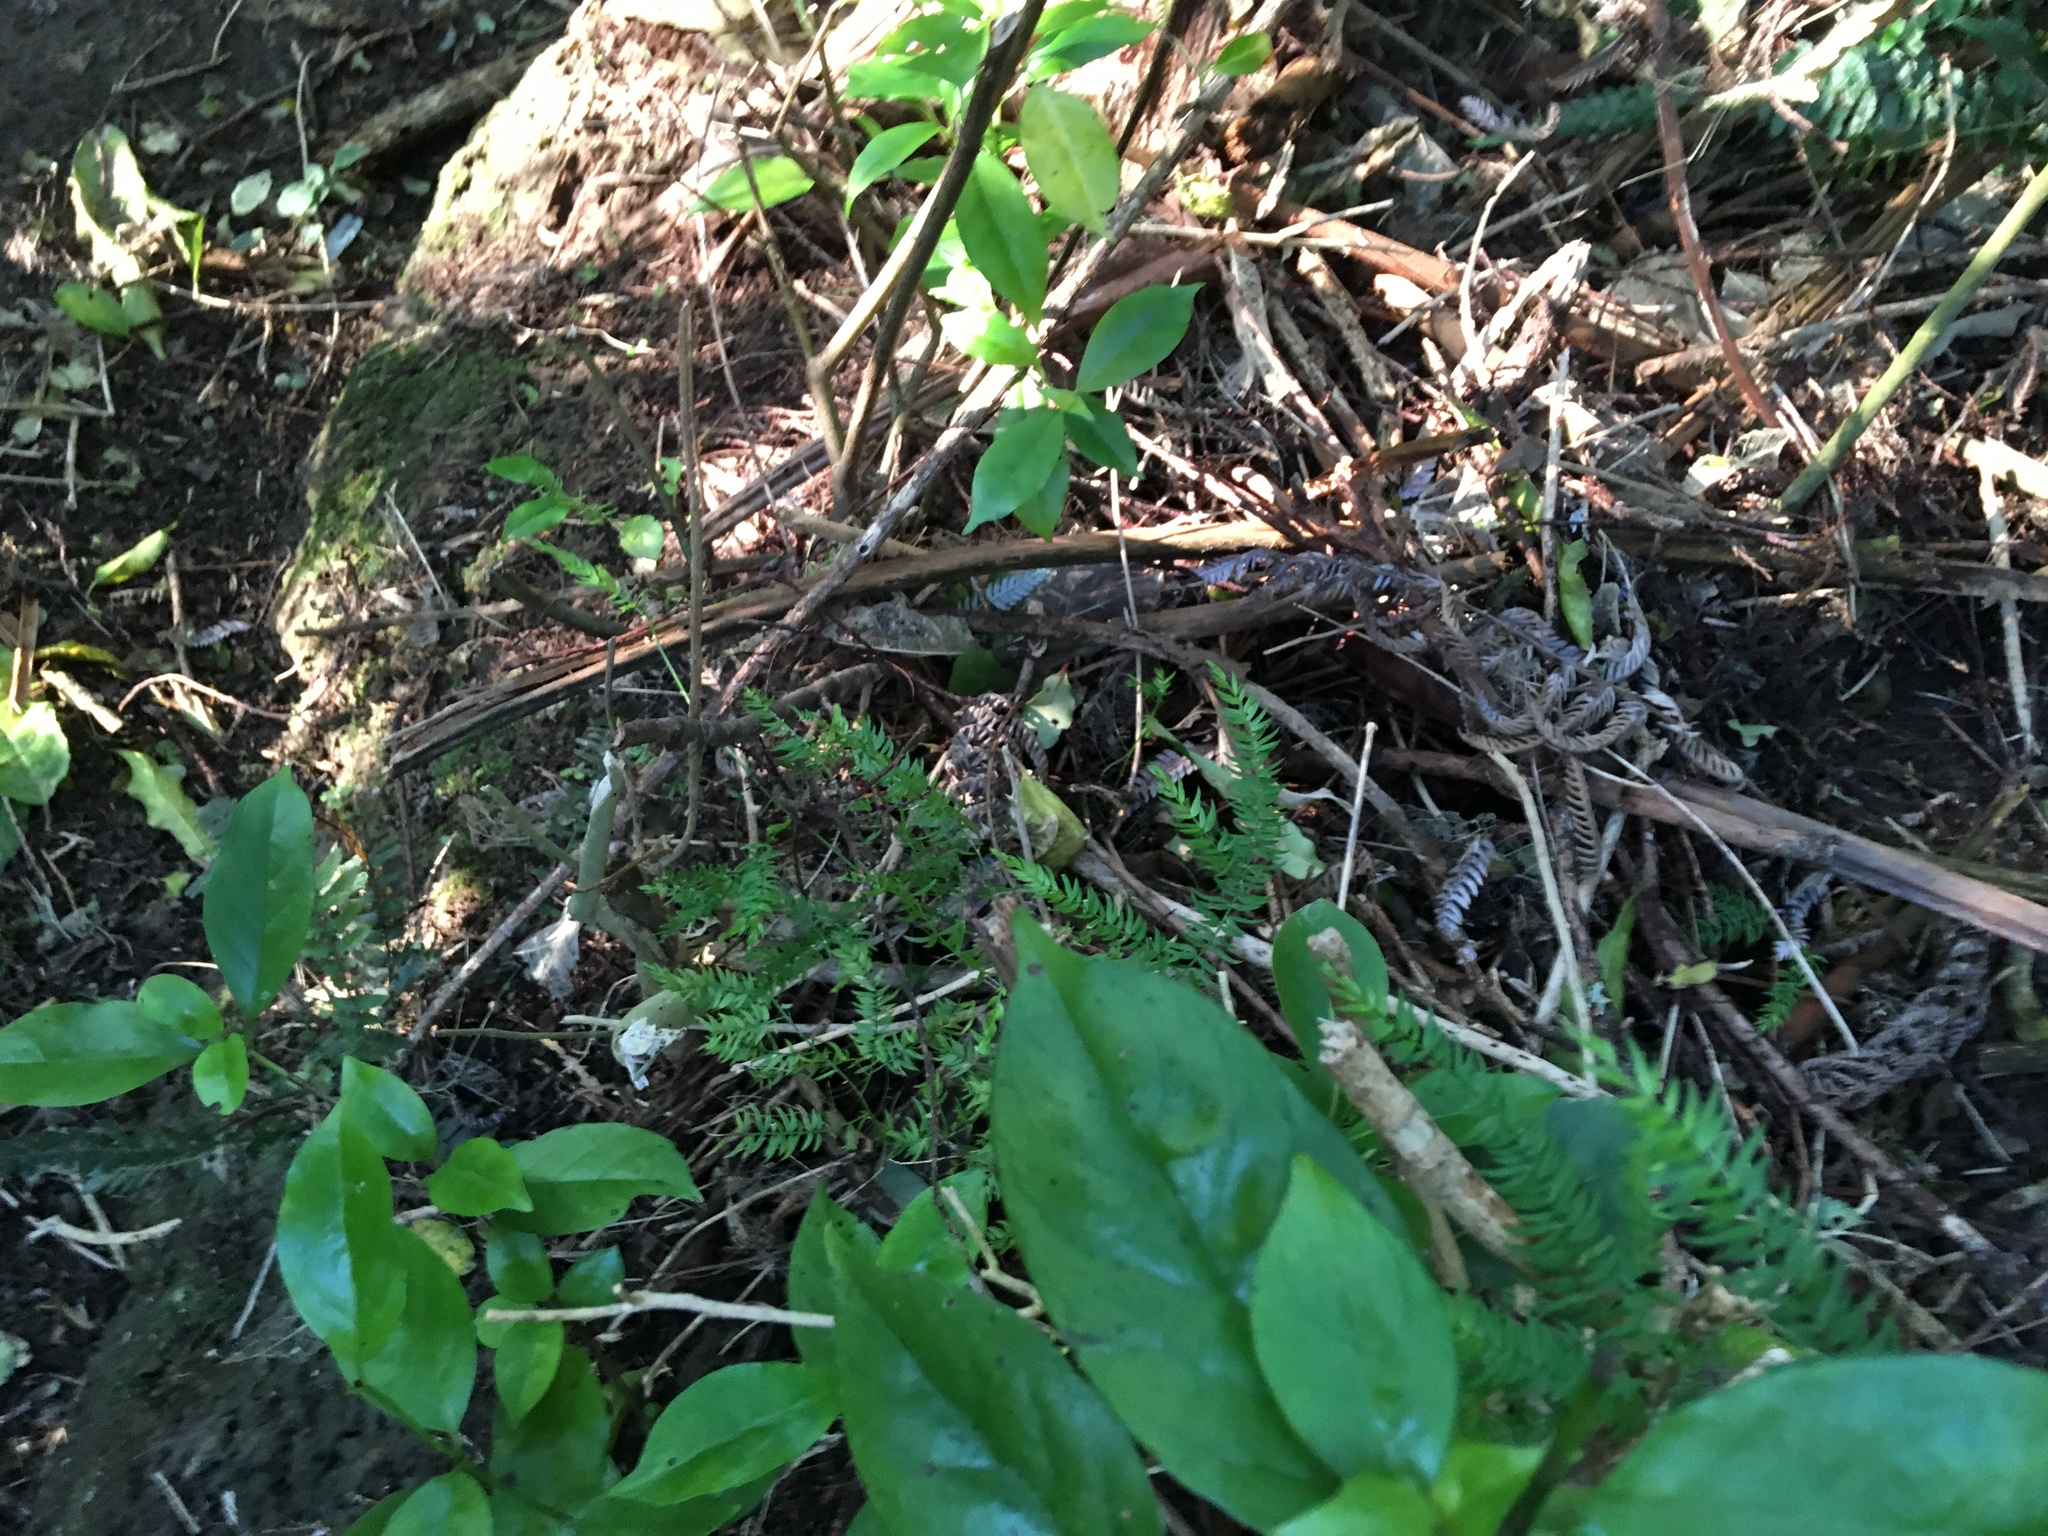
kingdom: Plantae
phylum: Tracheophyta
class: Liliopsida
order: Asparagales
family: Asparagaceae
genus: Asparagus
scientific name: Asparagus scandens
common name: Asparagus-fern
